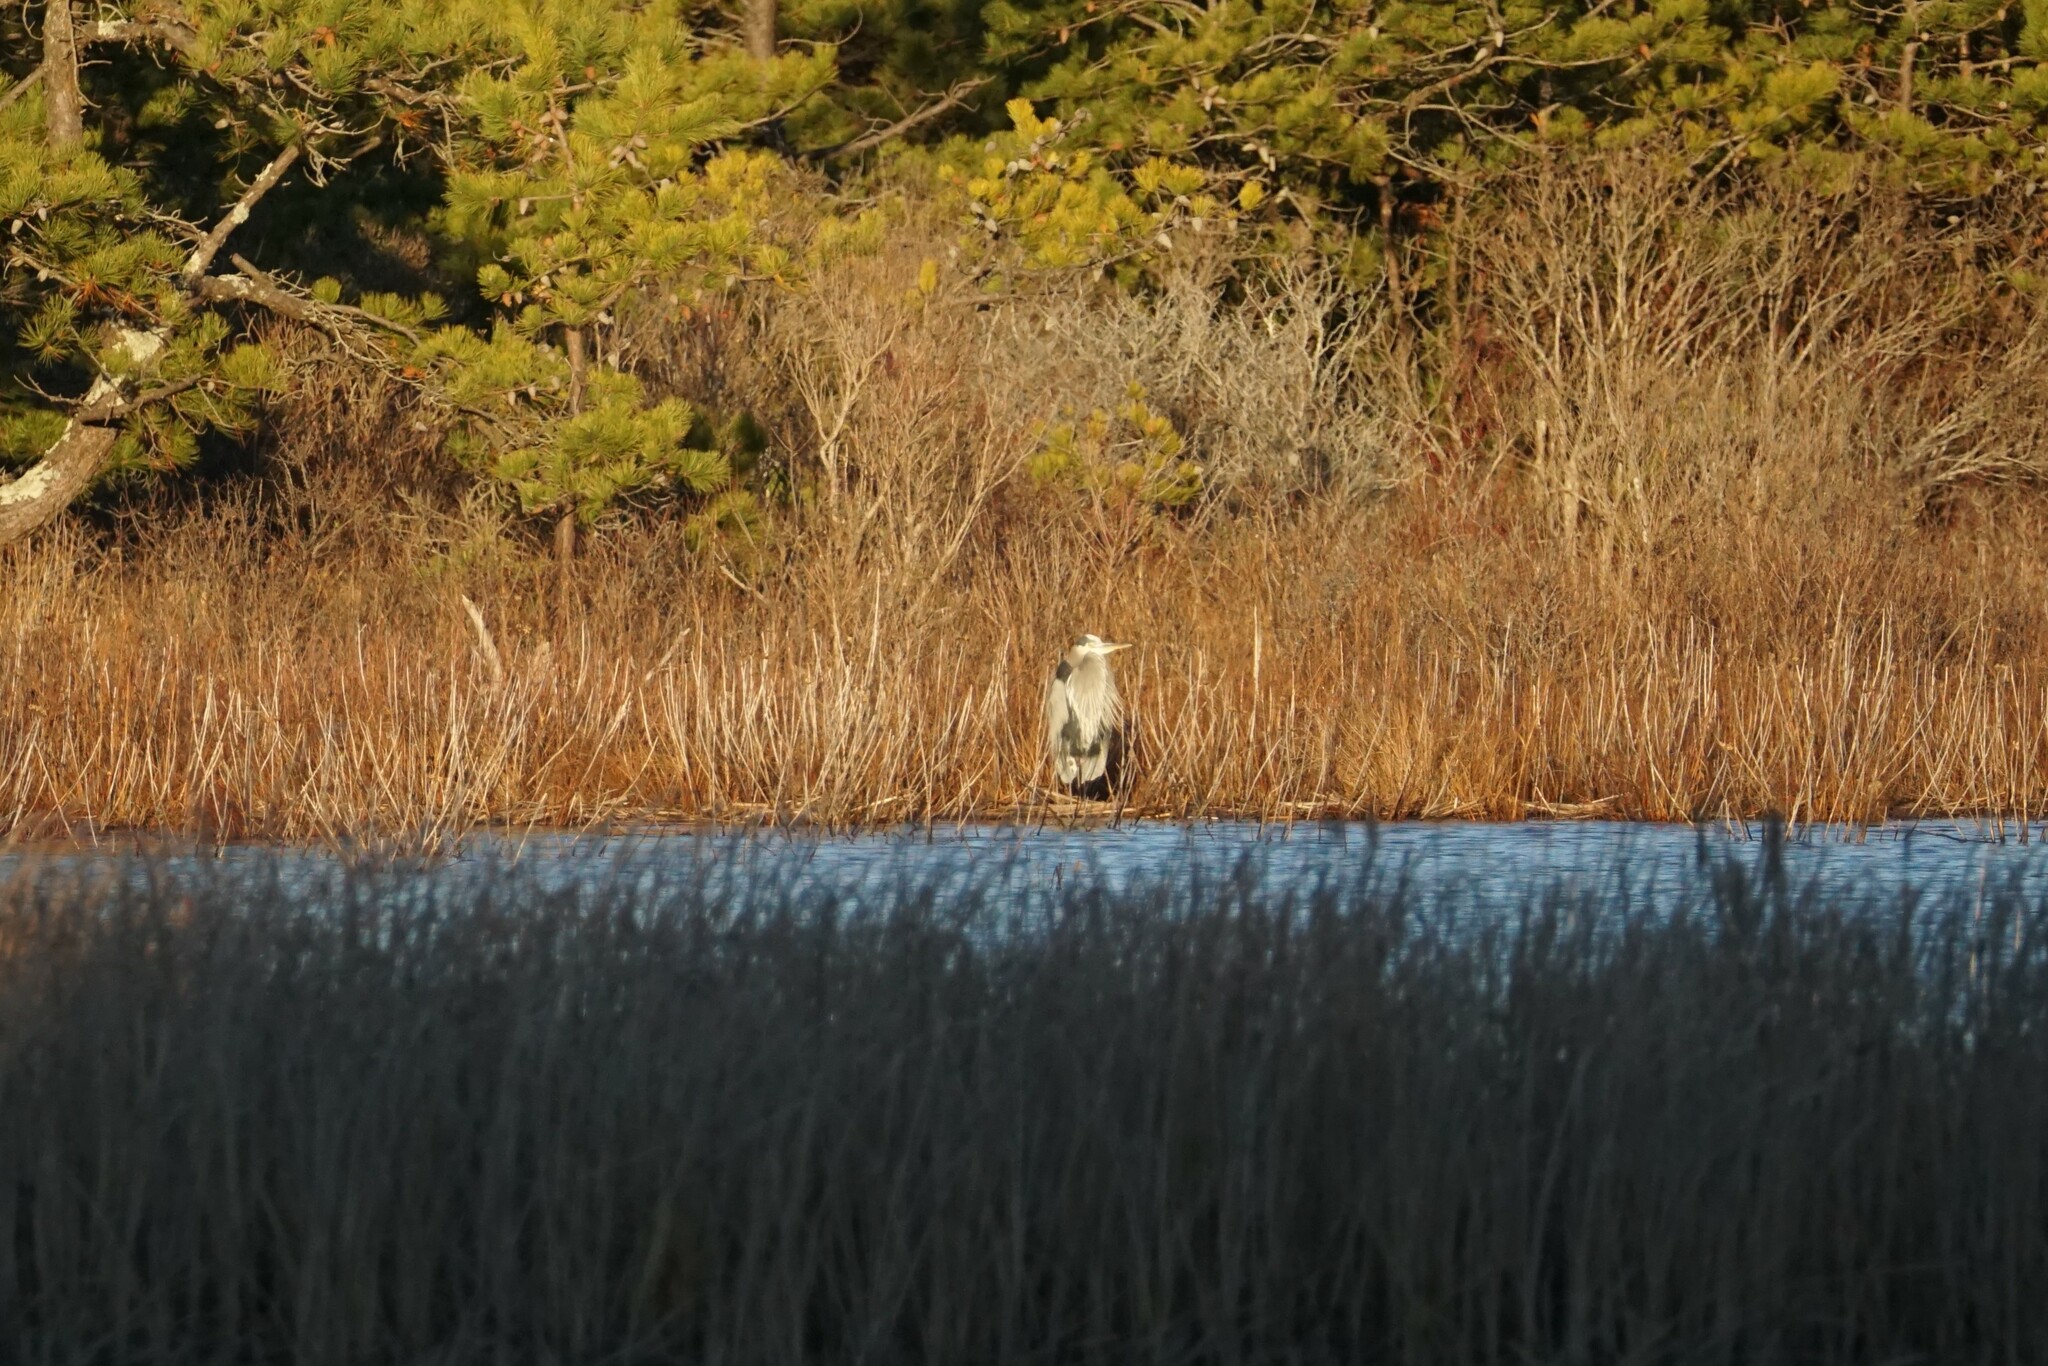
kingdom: Animalia
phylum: Chordata
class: Aves
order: Pelecaniformes
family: Ardeidae
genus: Ardea
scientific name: Ardea herodias
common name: Great blue heron
